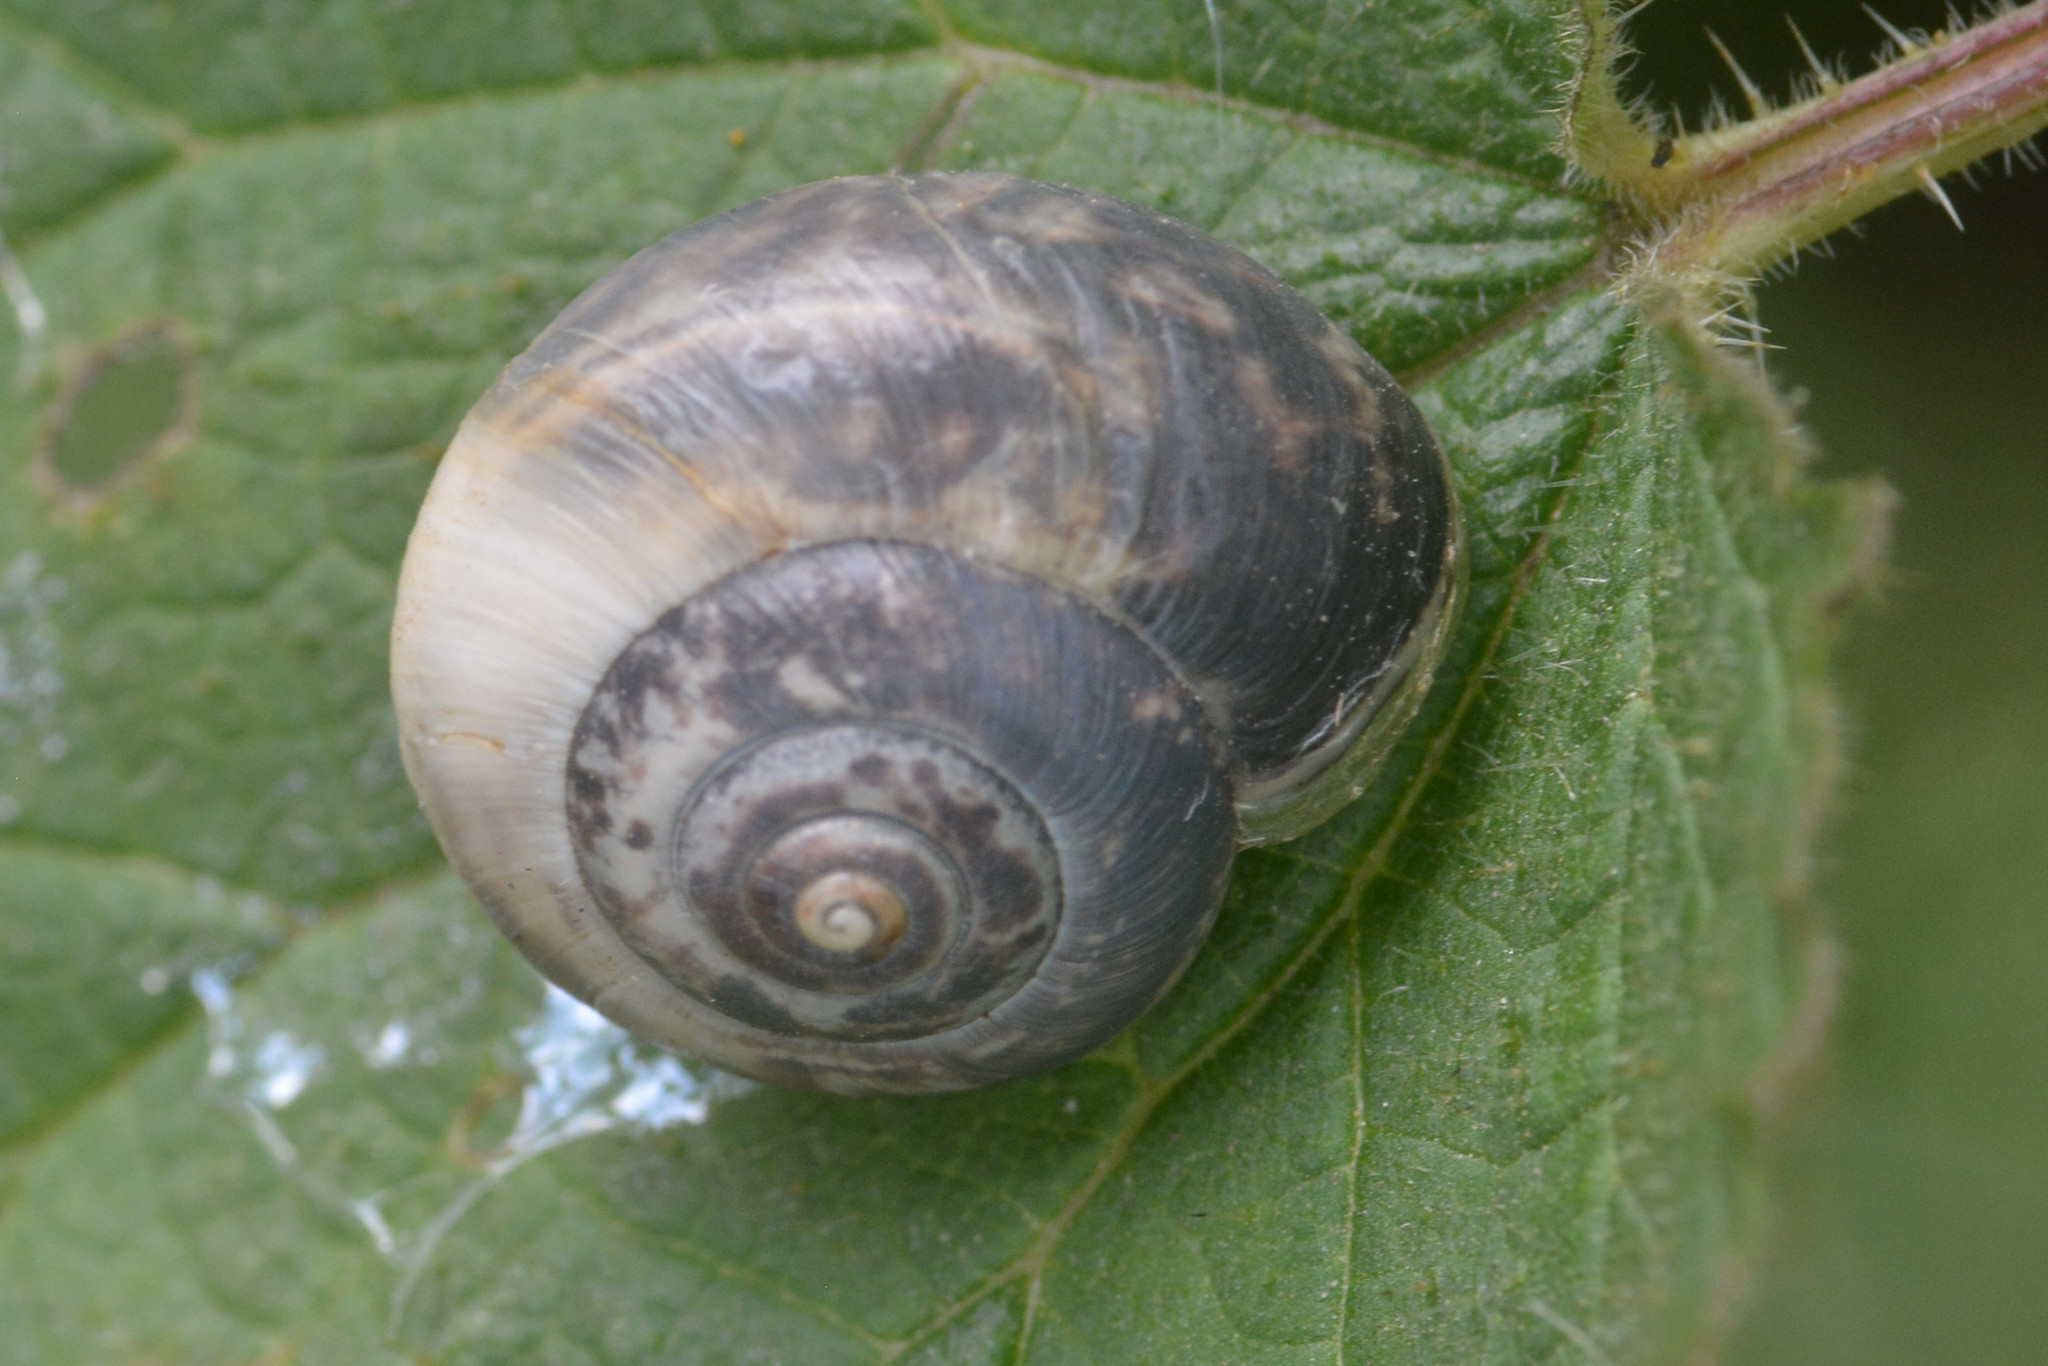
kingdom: Animalia
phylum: Mollusca
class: Gastropoda
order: Stylommatophora
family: Hygromiidae
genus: Monacha
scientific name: Monacha cantiana
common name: Kentish snail
